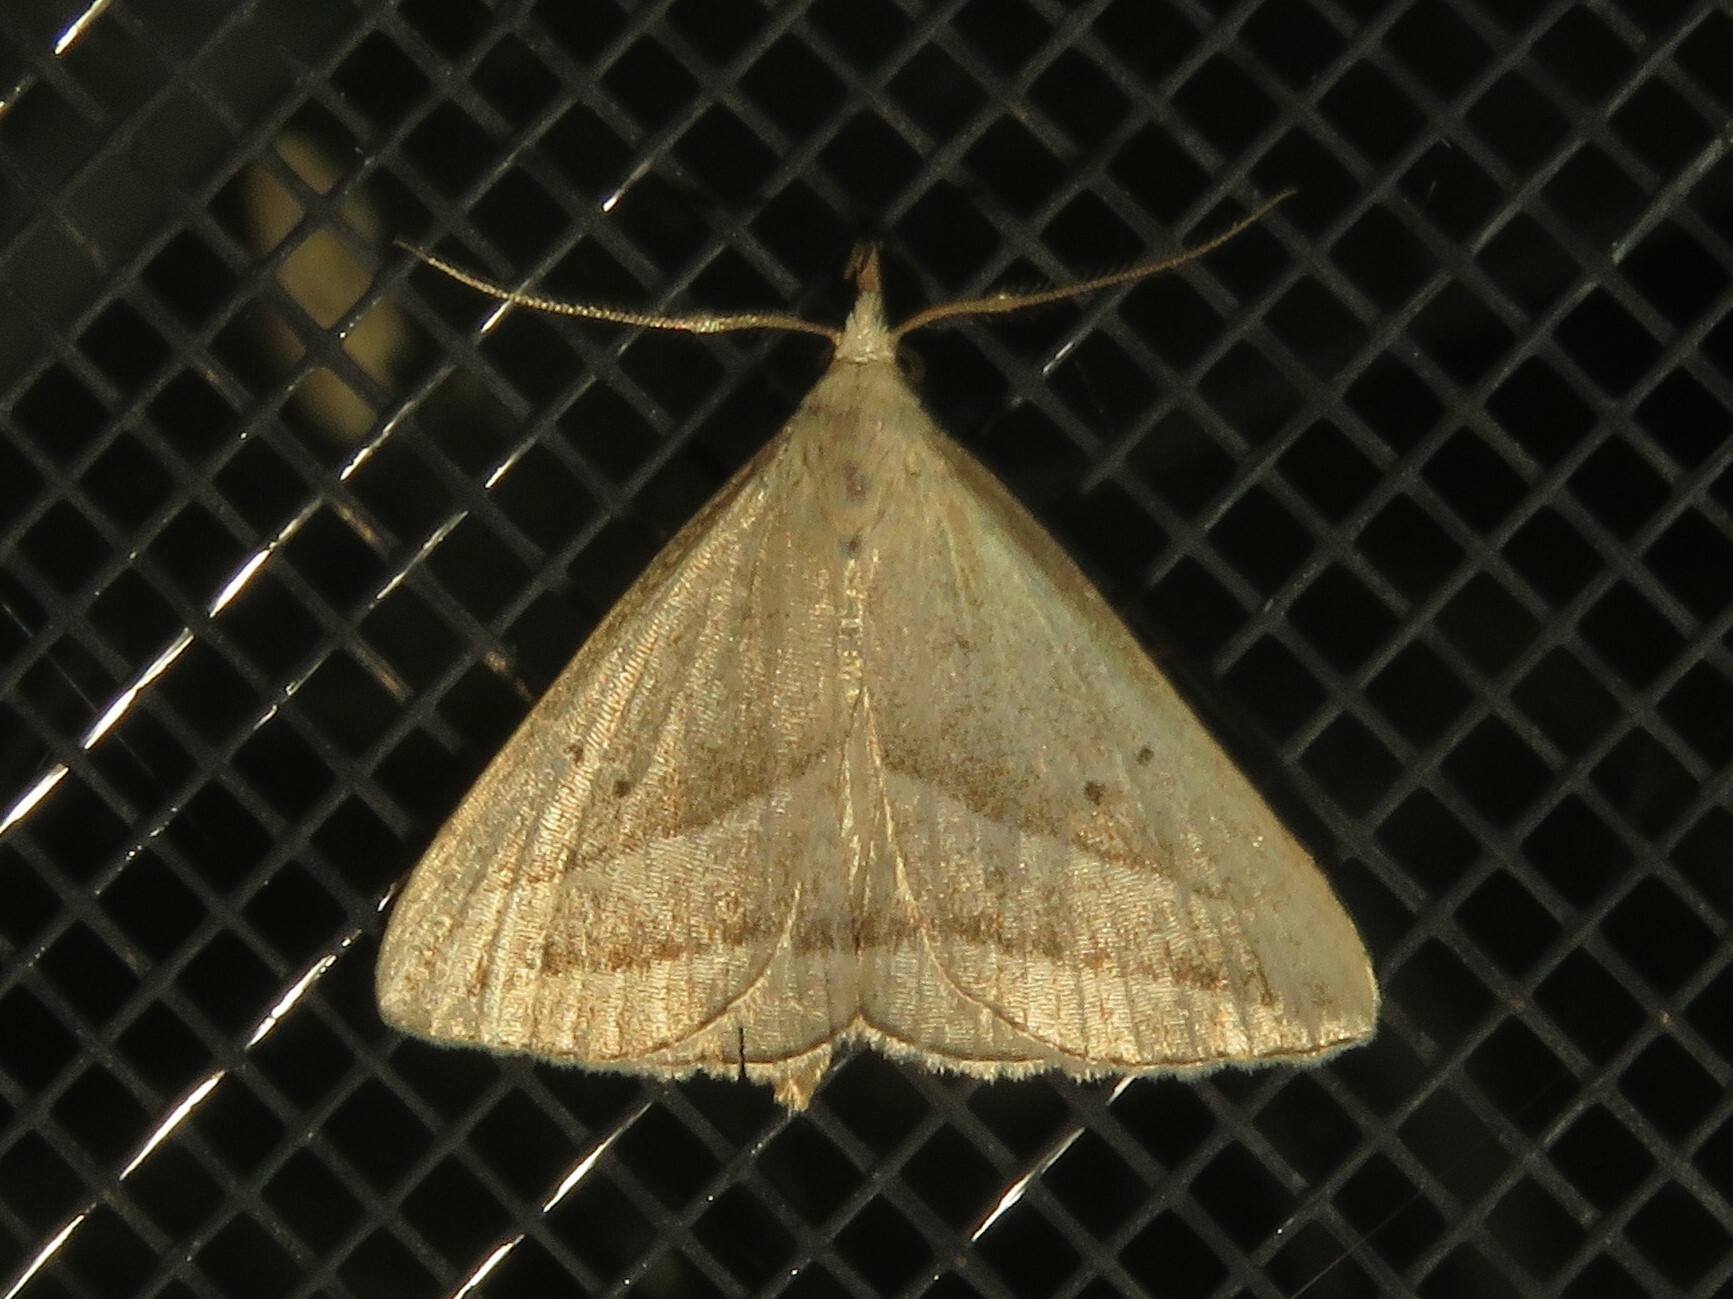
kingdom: Animalia
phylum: Arthropoda
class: Insecta
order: Lepidoptera
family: Erebidae
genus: Macrochilo
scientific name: Macrochilo absorptalis
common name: Slant-lined owlet
